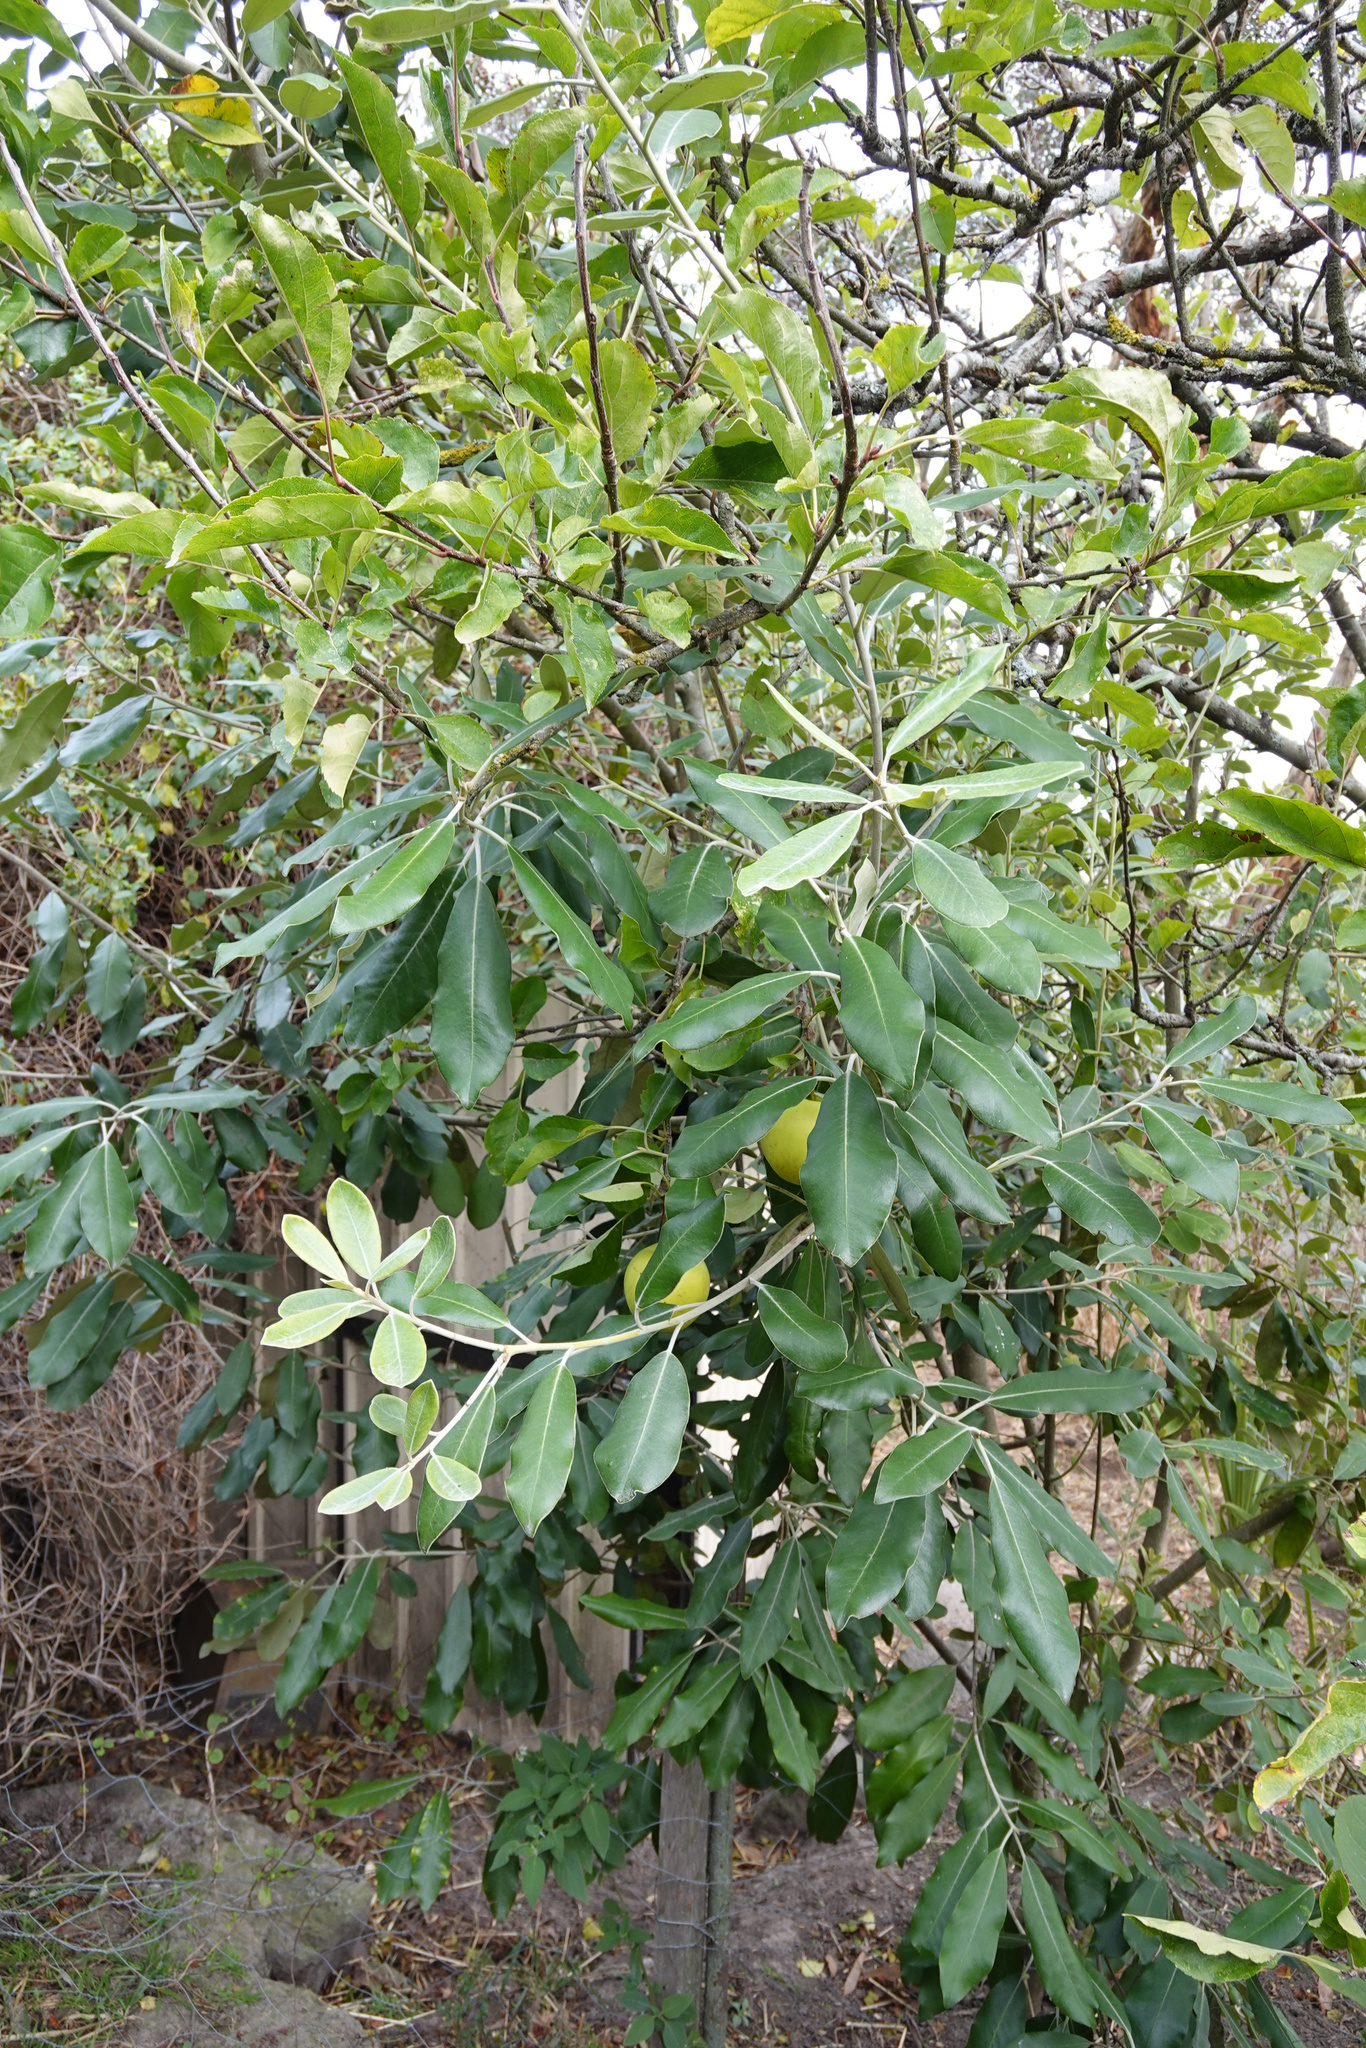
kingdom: Plantae
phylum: Tracheophyta
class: Magnoliopsida
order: Apiales
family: Pittosporaceae
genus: Pittosporum
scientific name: Pittosporum ralphii
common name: Ralph's desertwillow
